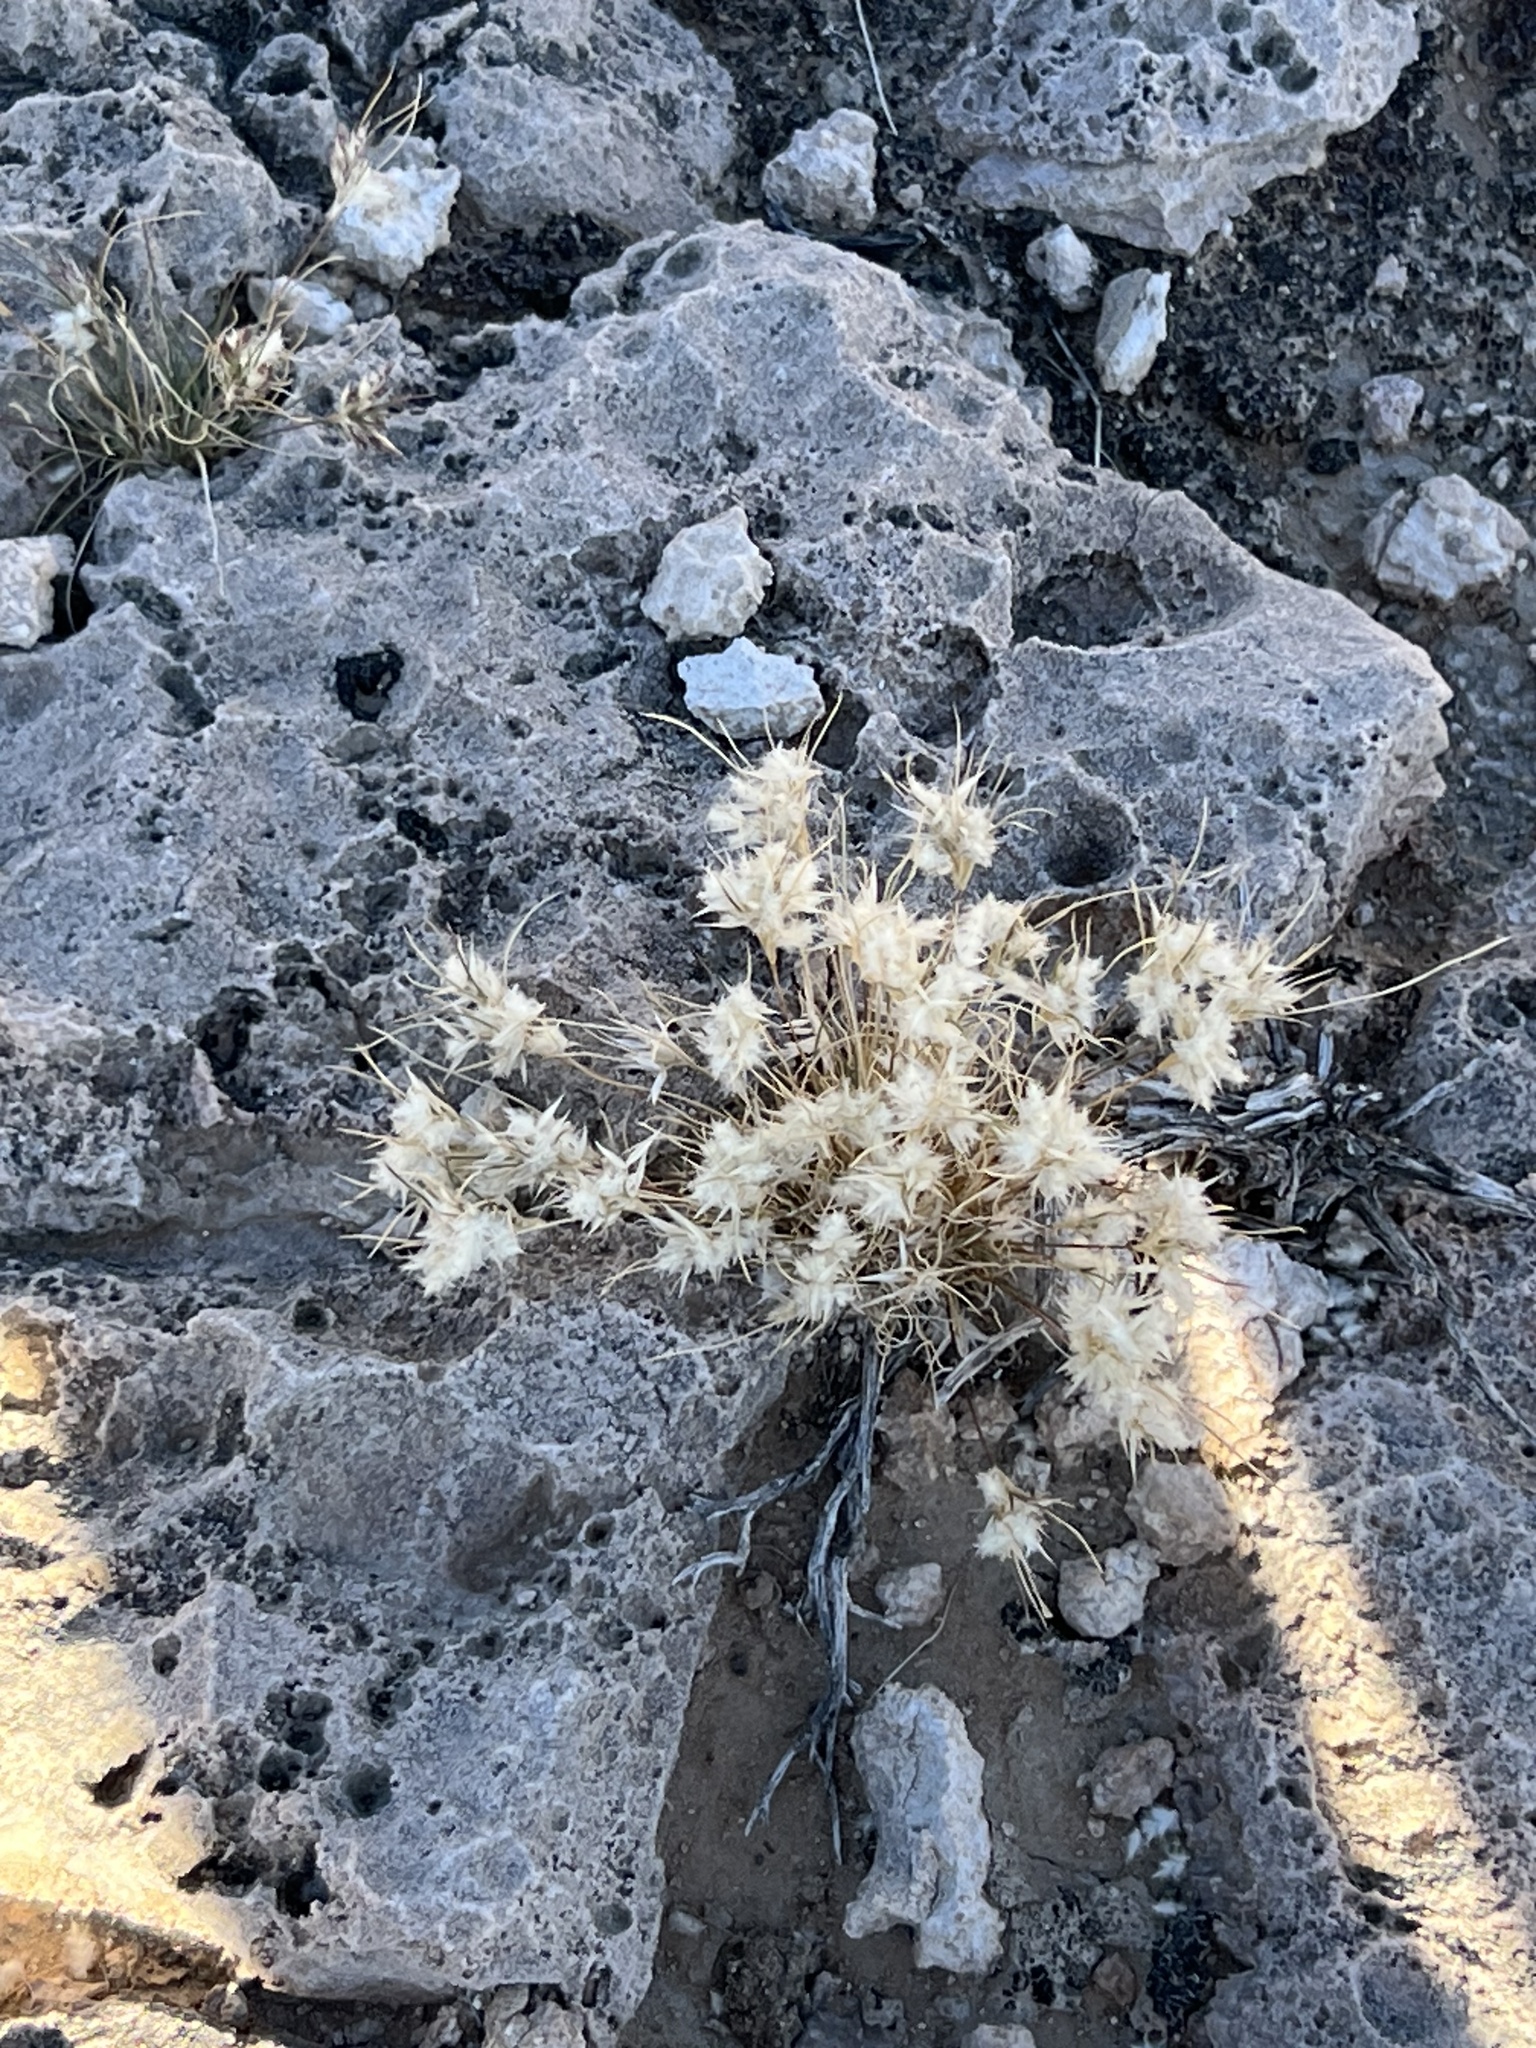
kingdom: Plantae
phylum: Tracheophyta
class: Liliopsida
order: Poales
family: Poaceae
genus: Dasyochloa
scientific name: Dasyochloa pulchella
